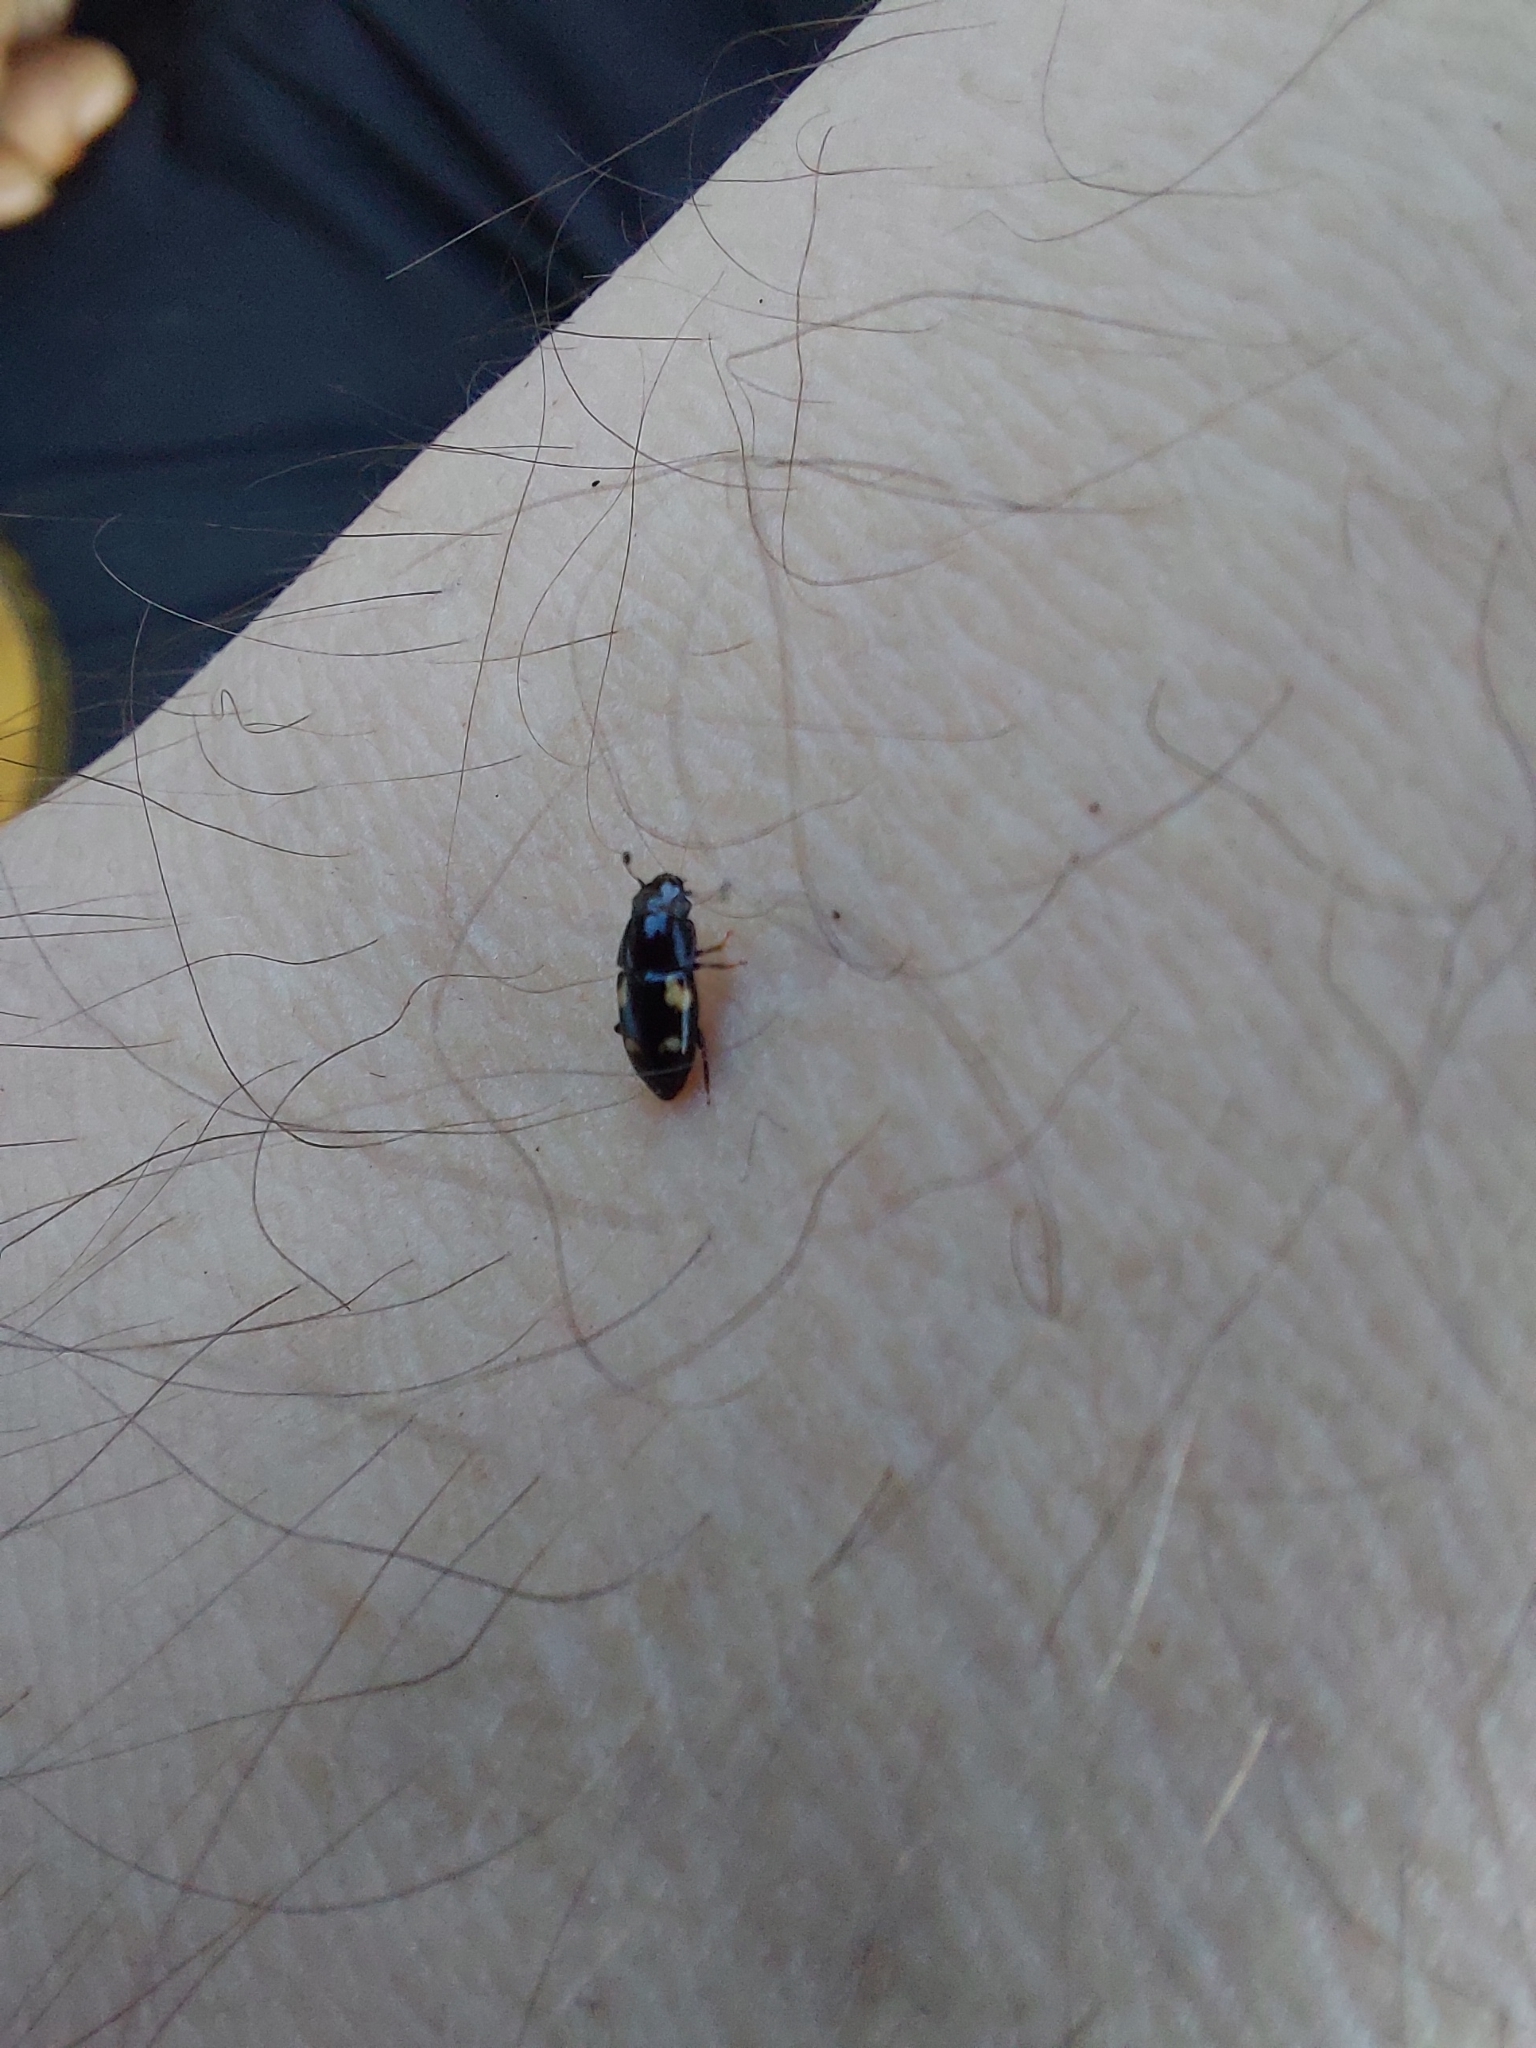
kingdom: Animalia
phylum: Arthropoda
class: Insecta
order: Coleoptera
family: Nitidulidae
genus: Glischrochilus
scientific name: Glischrochilus quadrisignatus
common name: Picnic beetle
